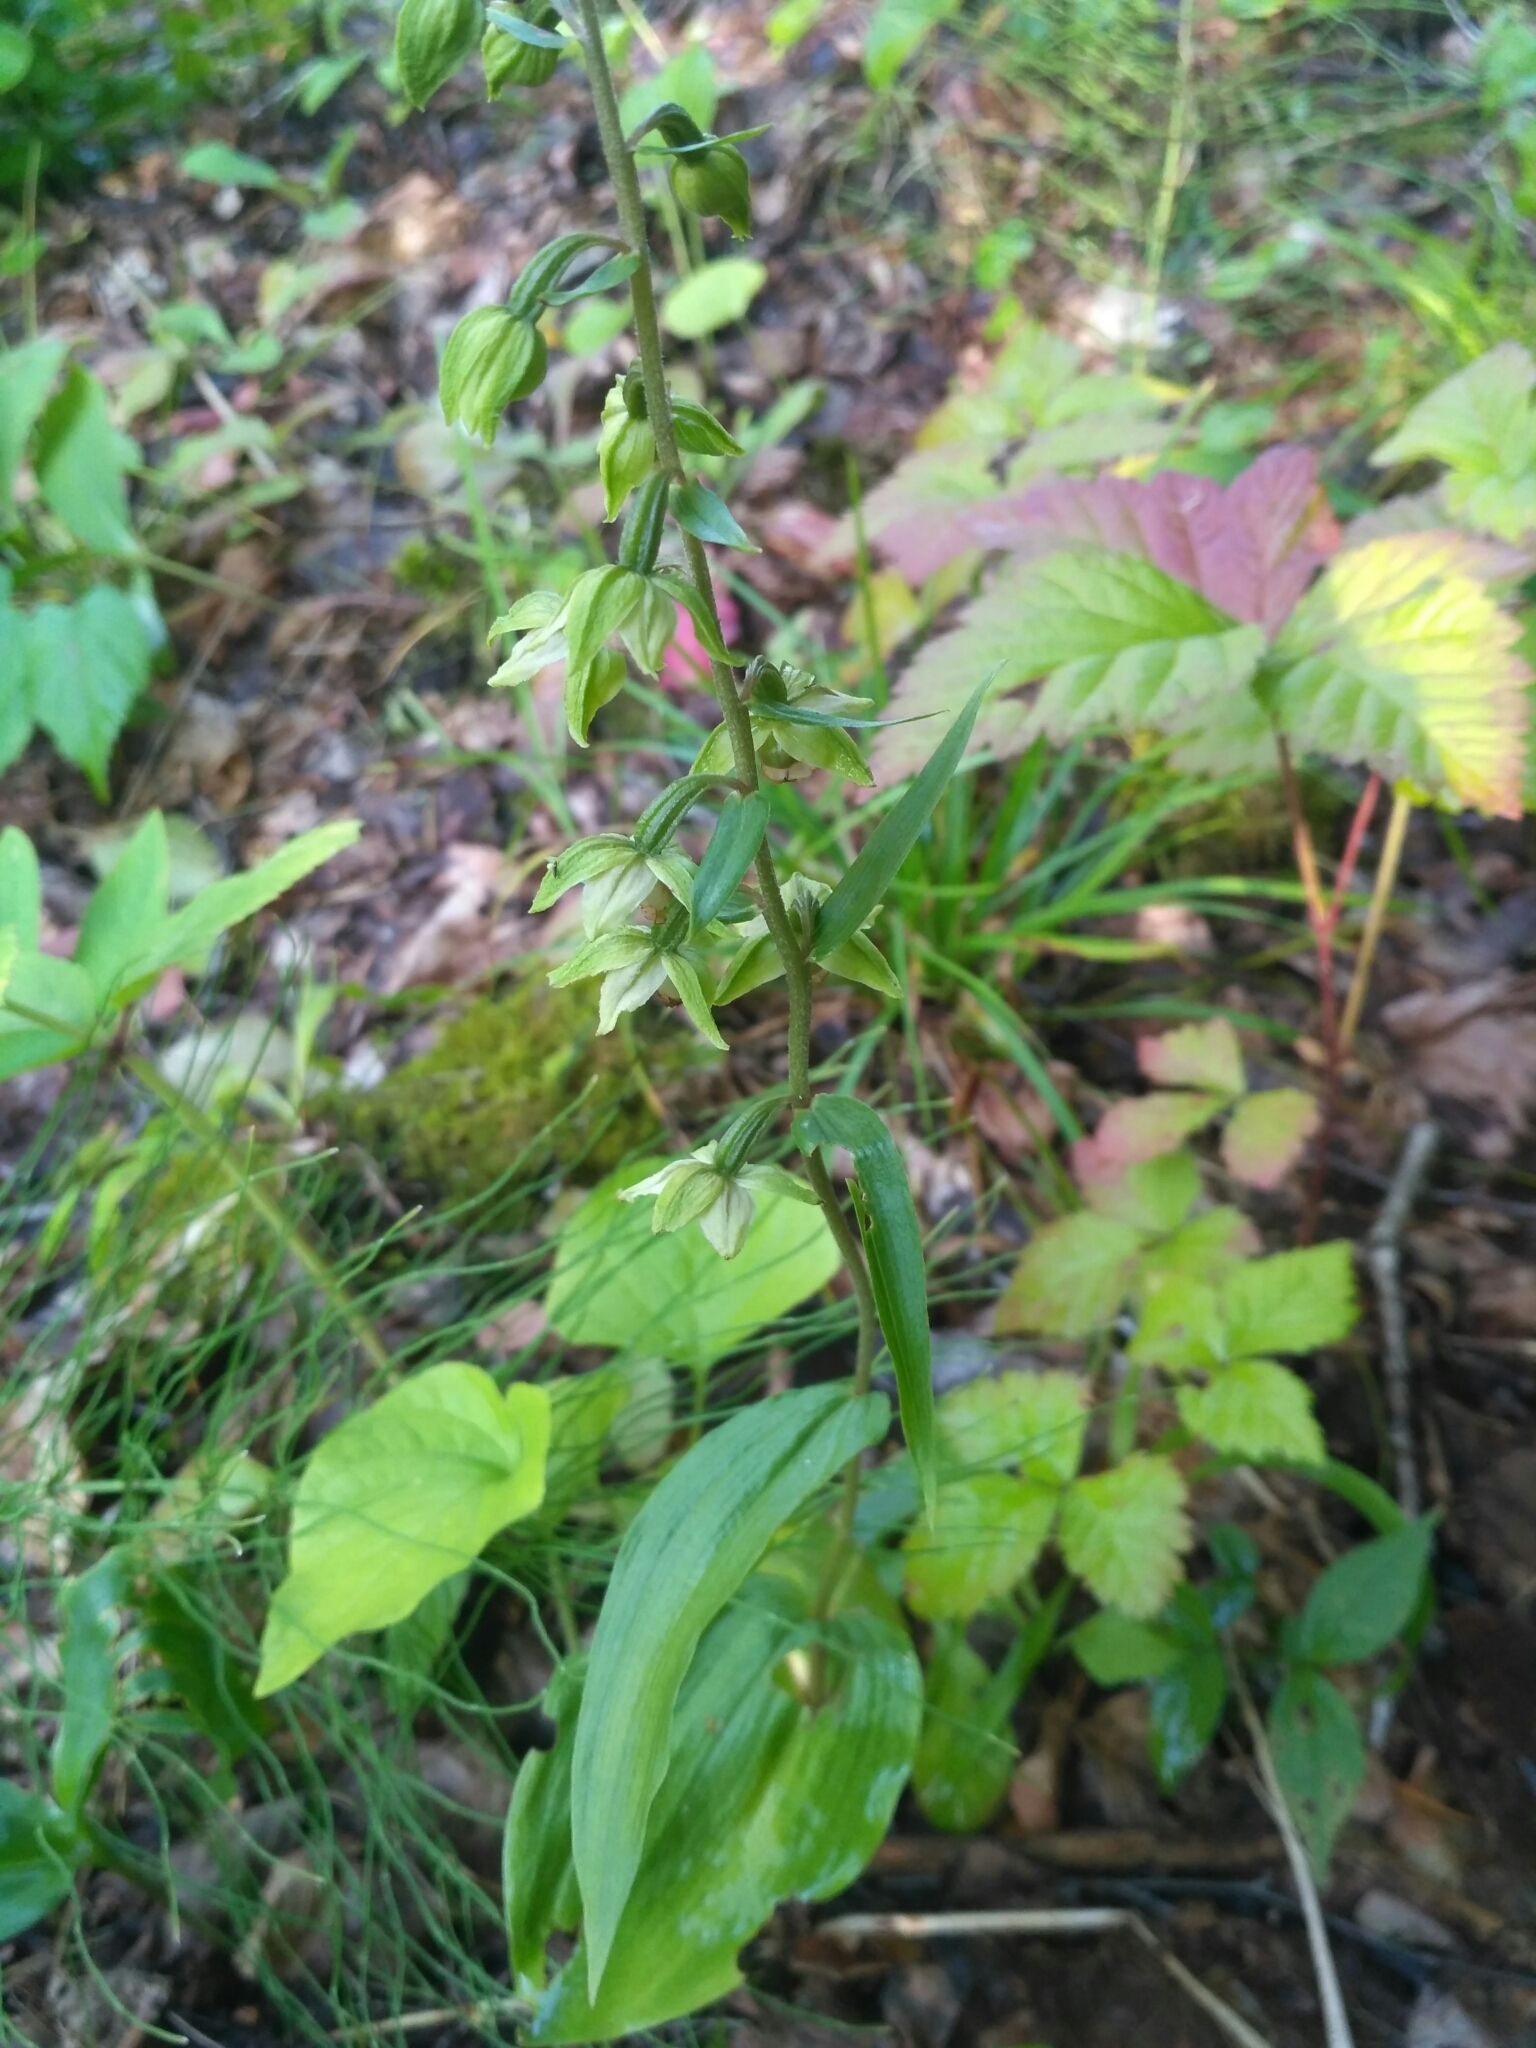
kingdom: Plantae
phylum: Tracheophyta
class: Liliopsida
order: Asparagales
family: Orchidaceae
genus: Epipactis
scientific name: Epipactis helleborine
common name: Broad-leaved helleborine
